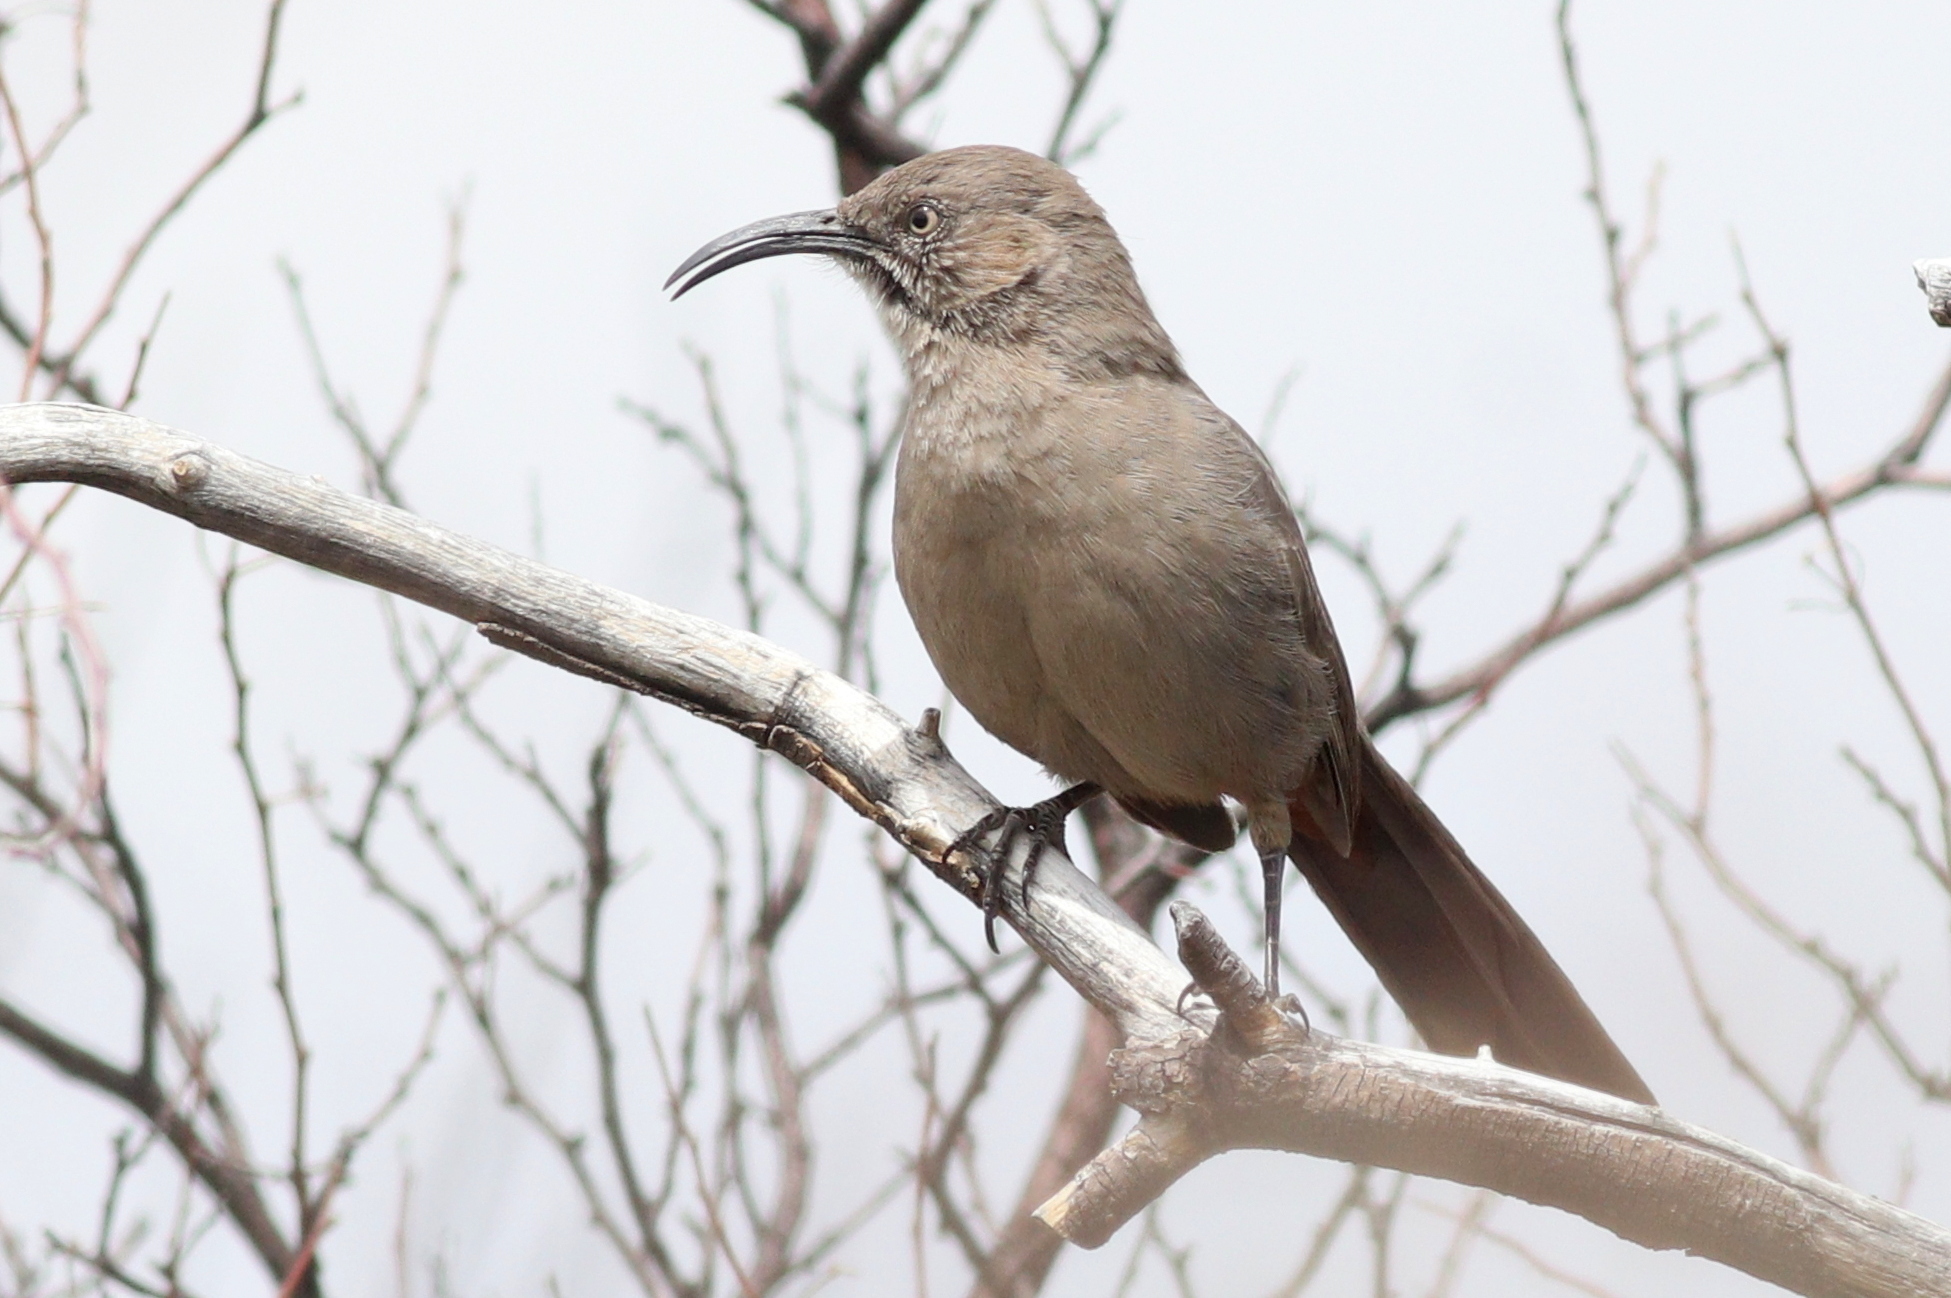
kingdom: Animalia
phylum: Chordata
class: Aves
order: Passeriformes
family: Mimidae
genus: Toxostoma
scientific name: Toxostoma crissale
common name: Crissal thrasher
